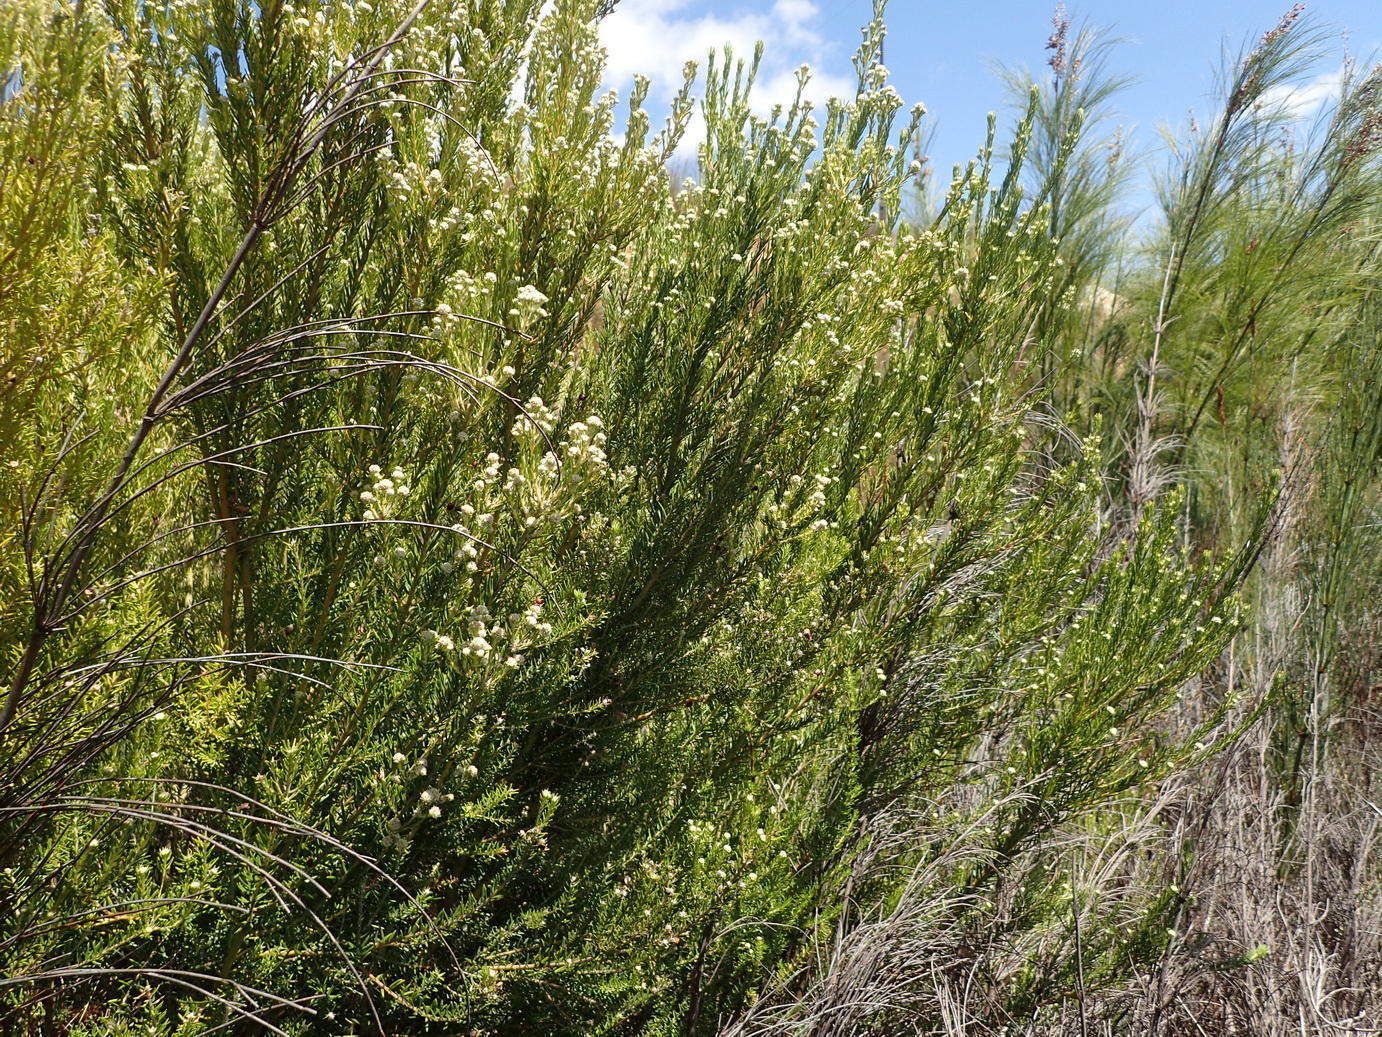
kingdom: Plantae
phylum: Tracheophyta
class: Magnoliopsida
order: Rosales
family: Rhamnaceae
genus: Phylica
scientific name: Phylica rubra
